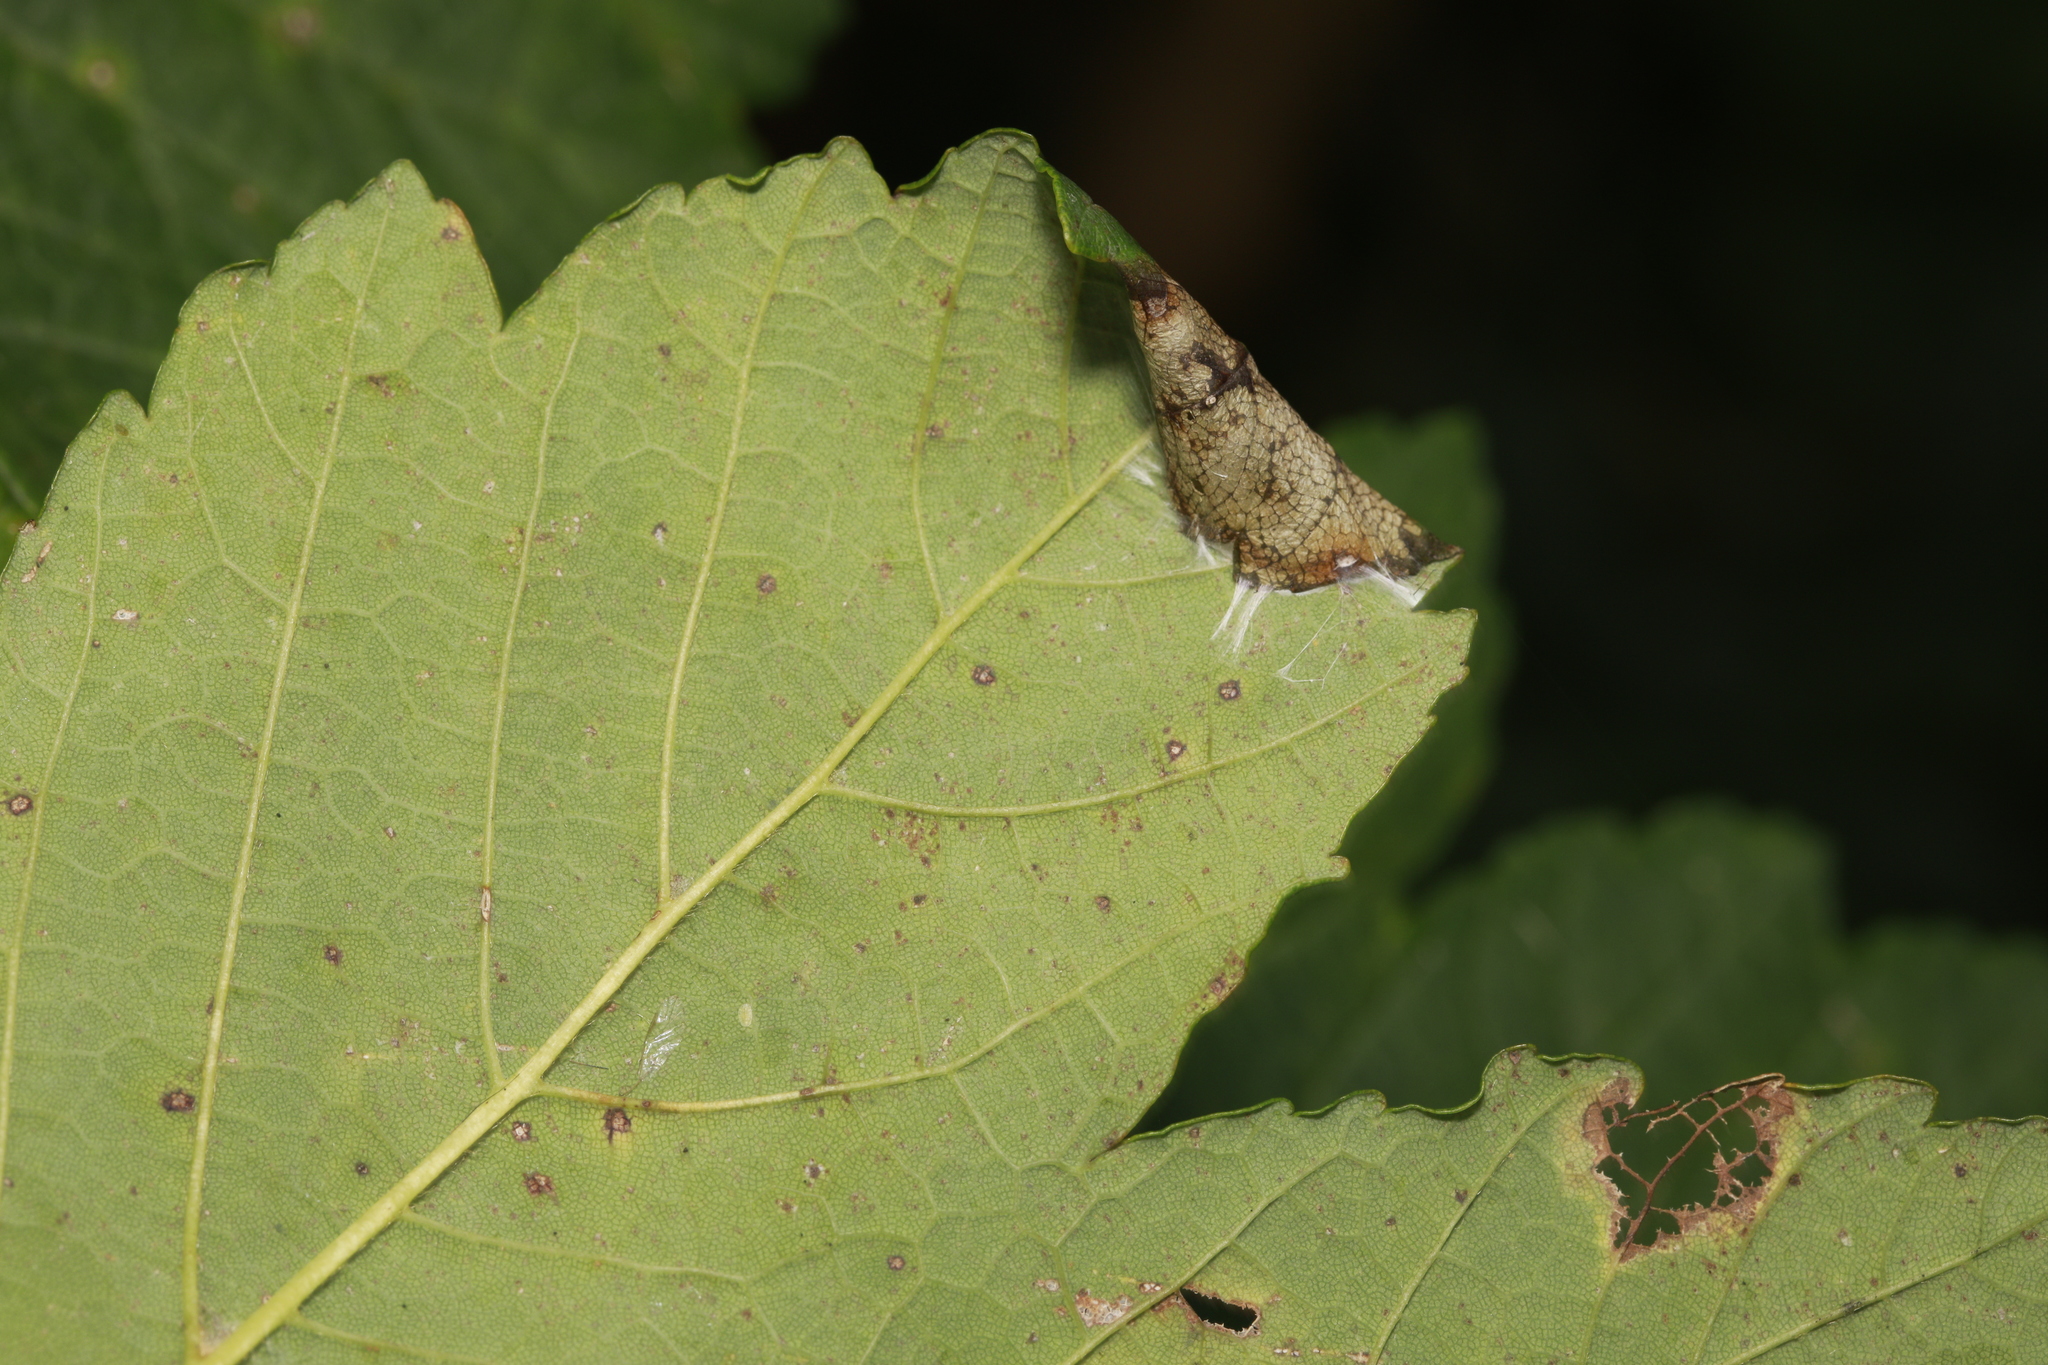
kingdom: Animalia
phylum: Arthropoda
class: Insecta
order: Lepidoptera
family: Gracillariidae
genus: Caloptilia
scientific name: Caloptilia rufipennella
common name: Small red slender
